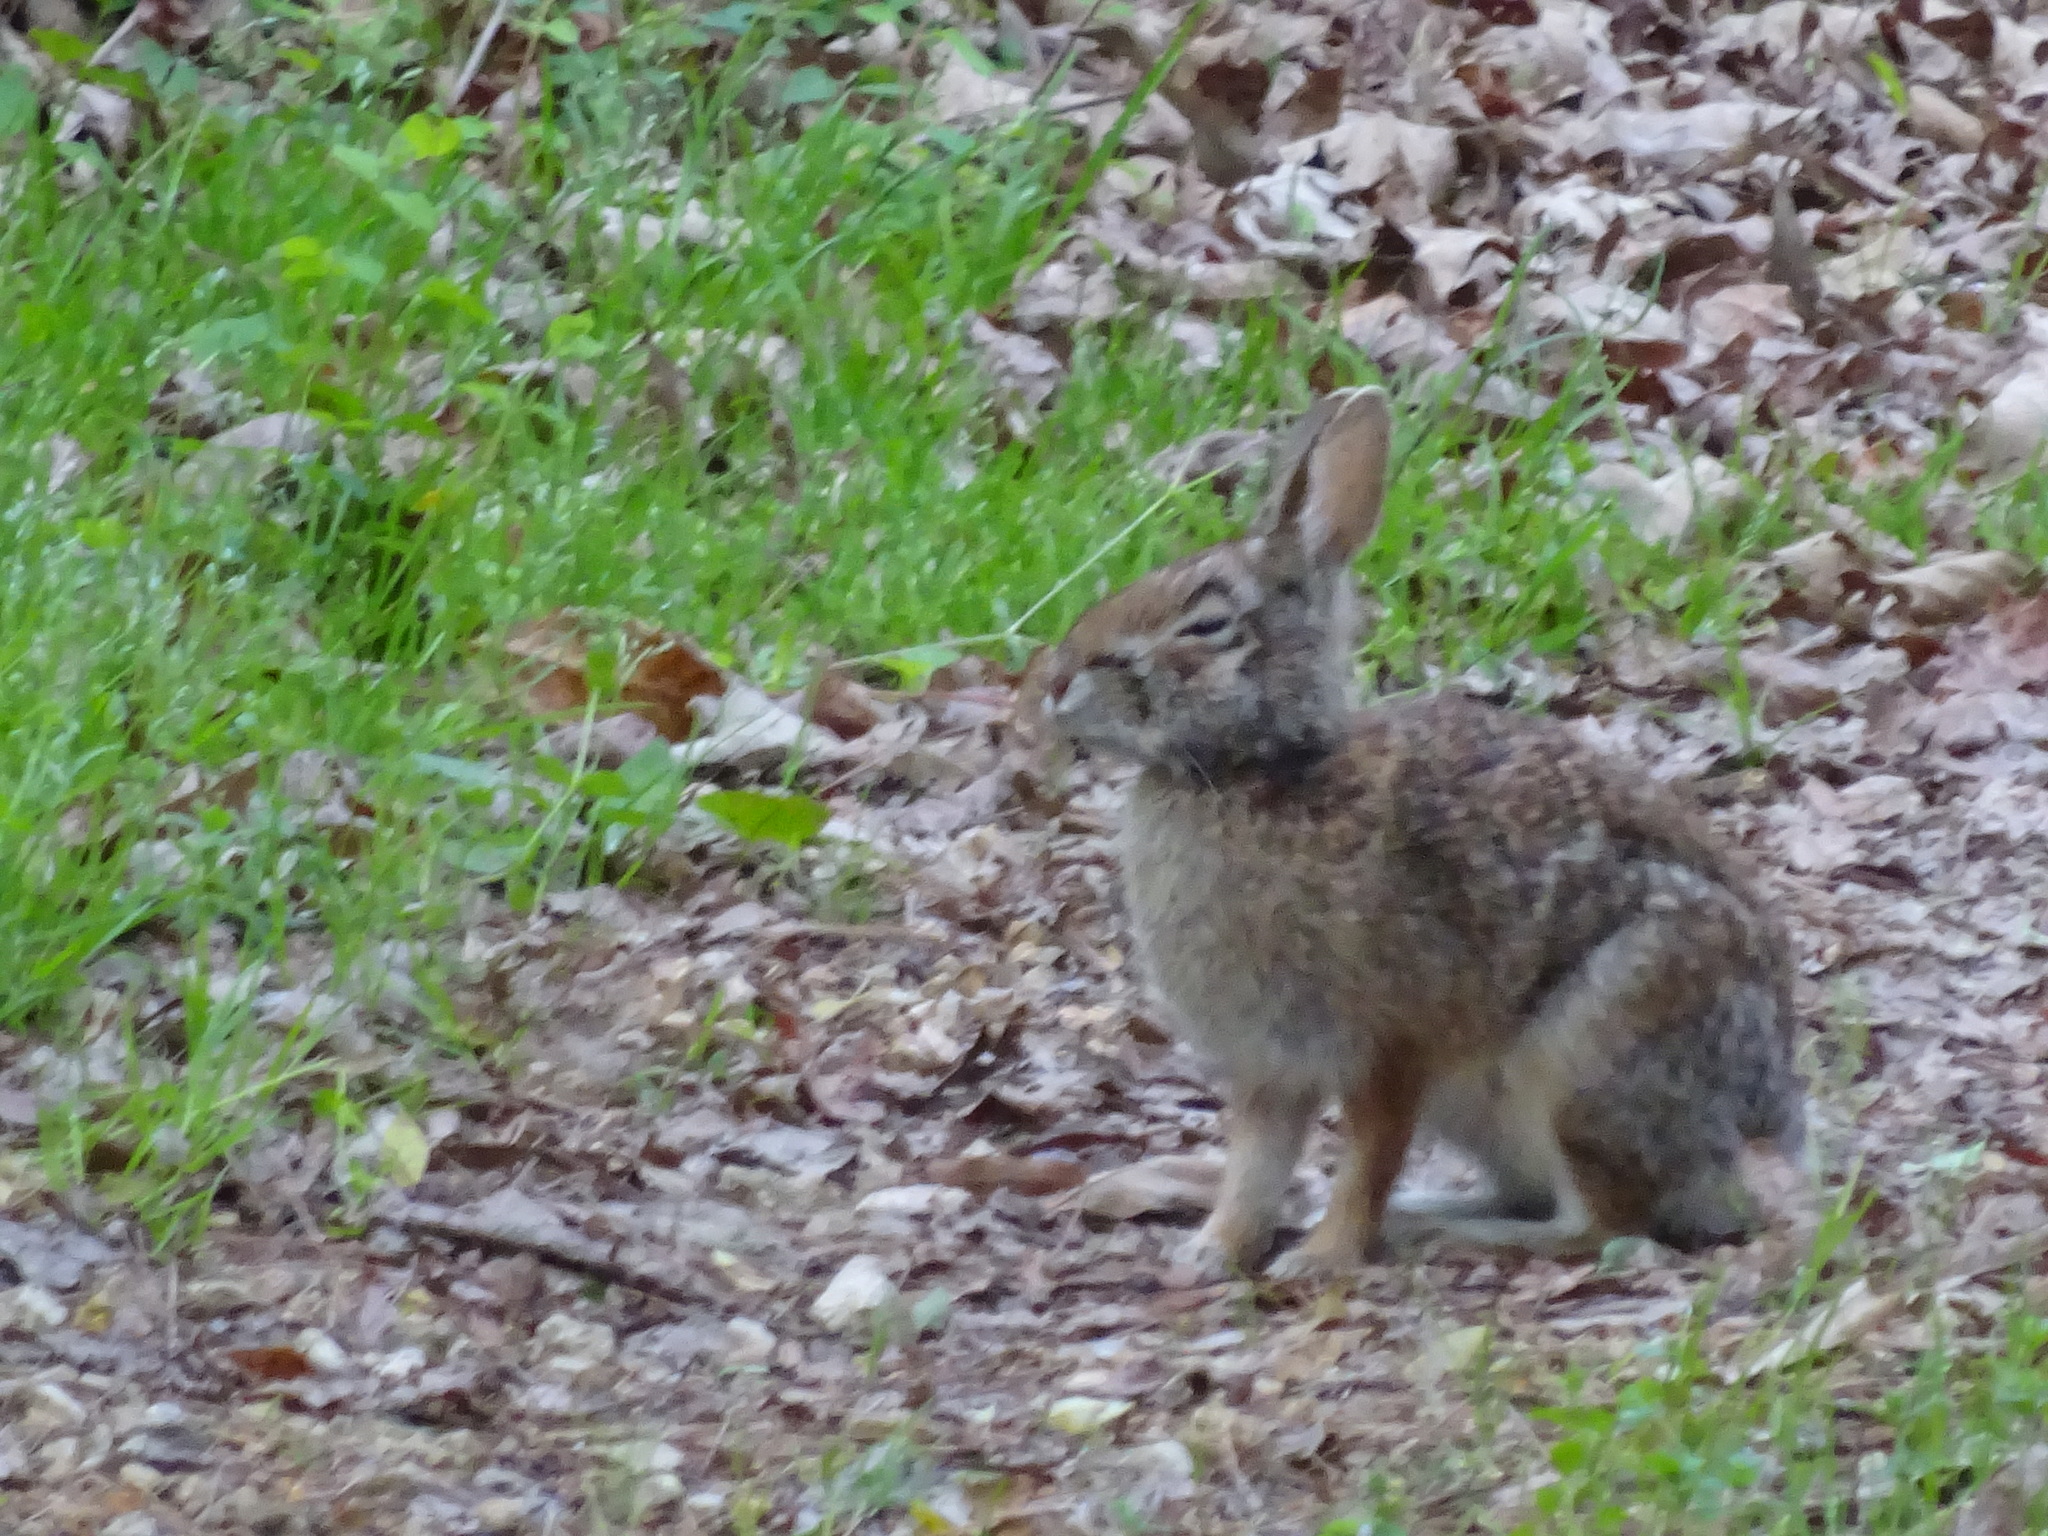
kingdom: Animalia
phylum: Chordata
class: Mammalia
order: Lagomorpha
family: Leporidae
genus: Sylvilagus
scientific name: Sylvilagus floridanus
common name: Eastern cottontail
